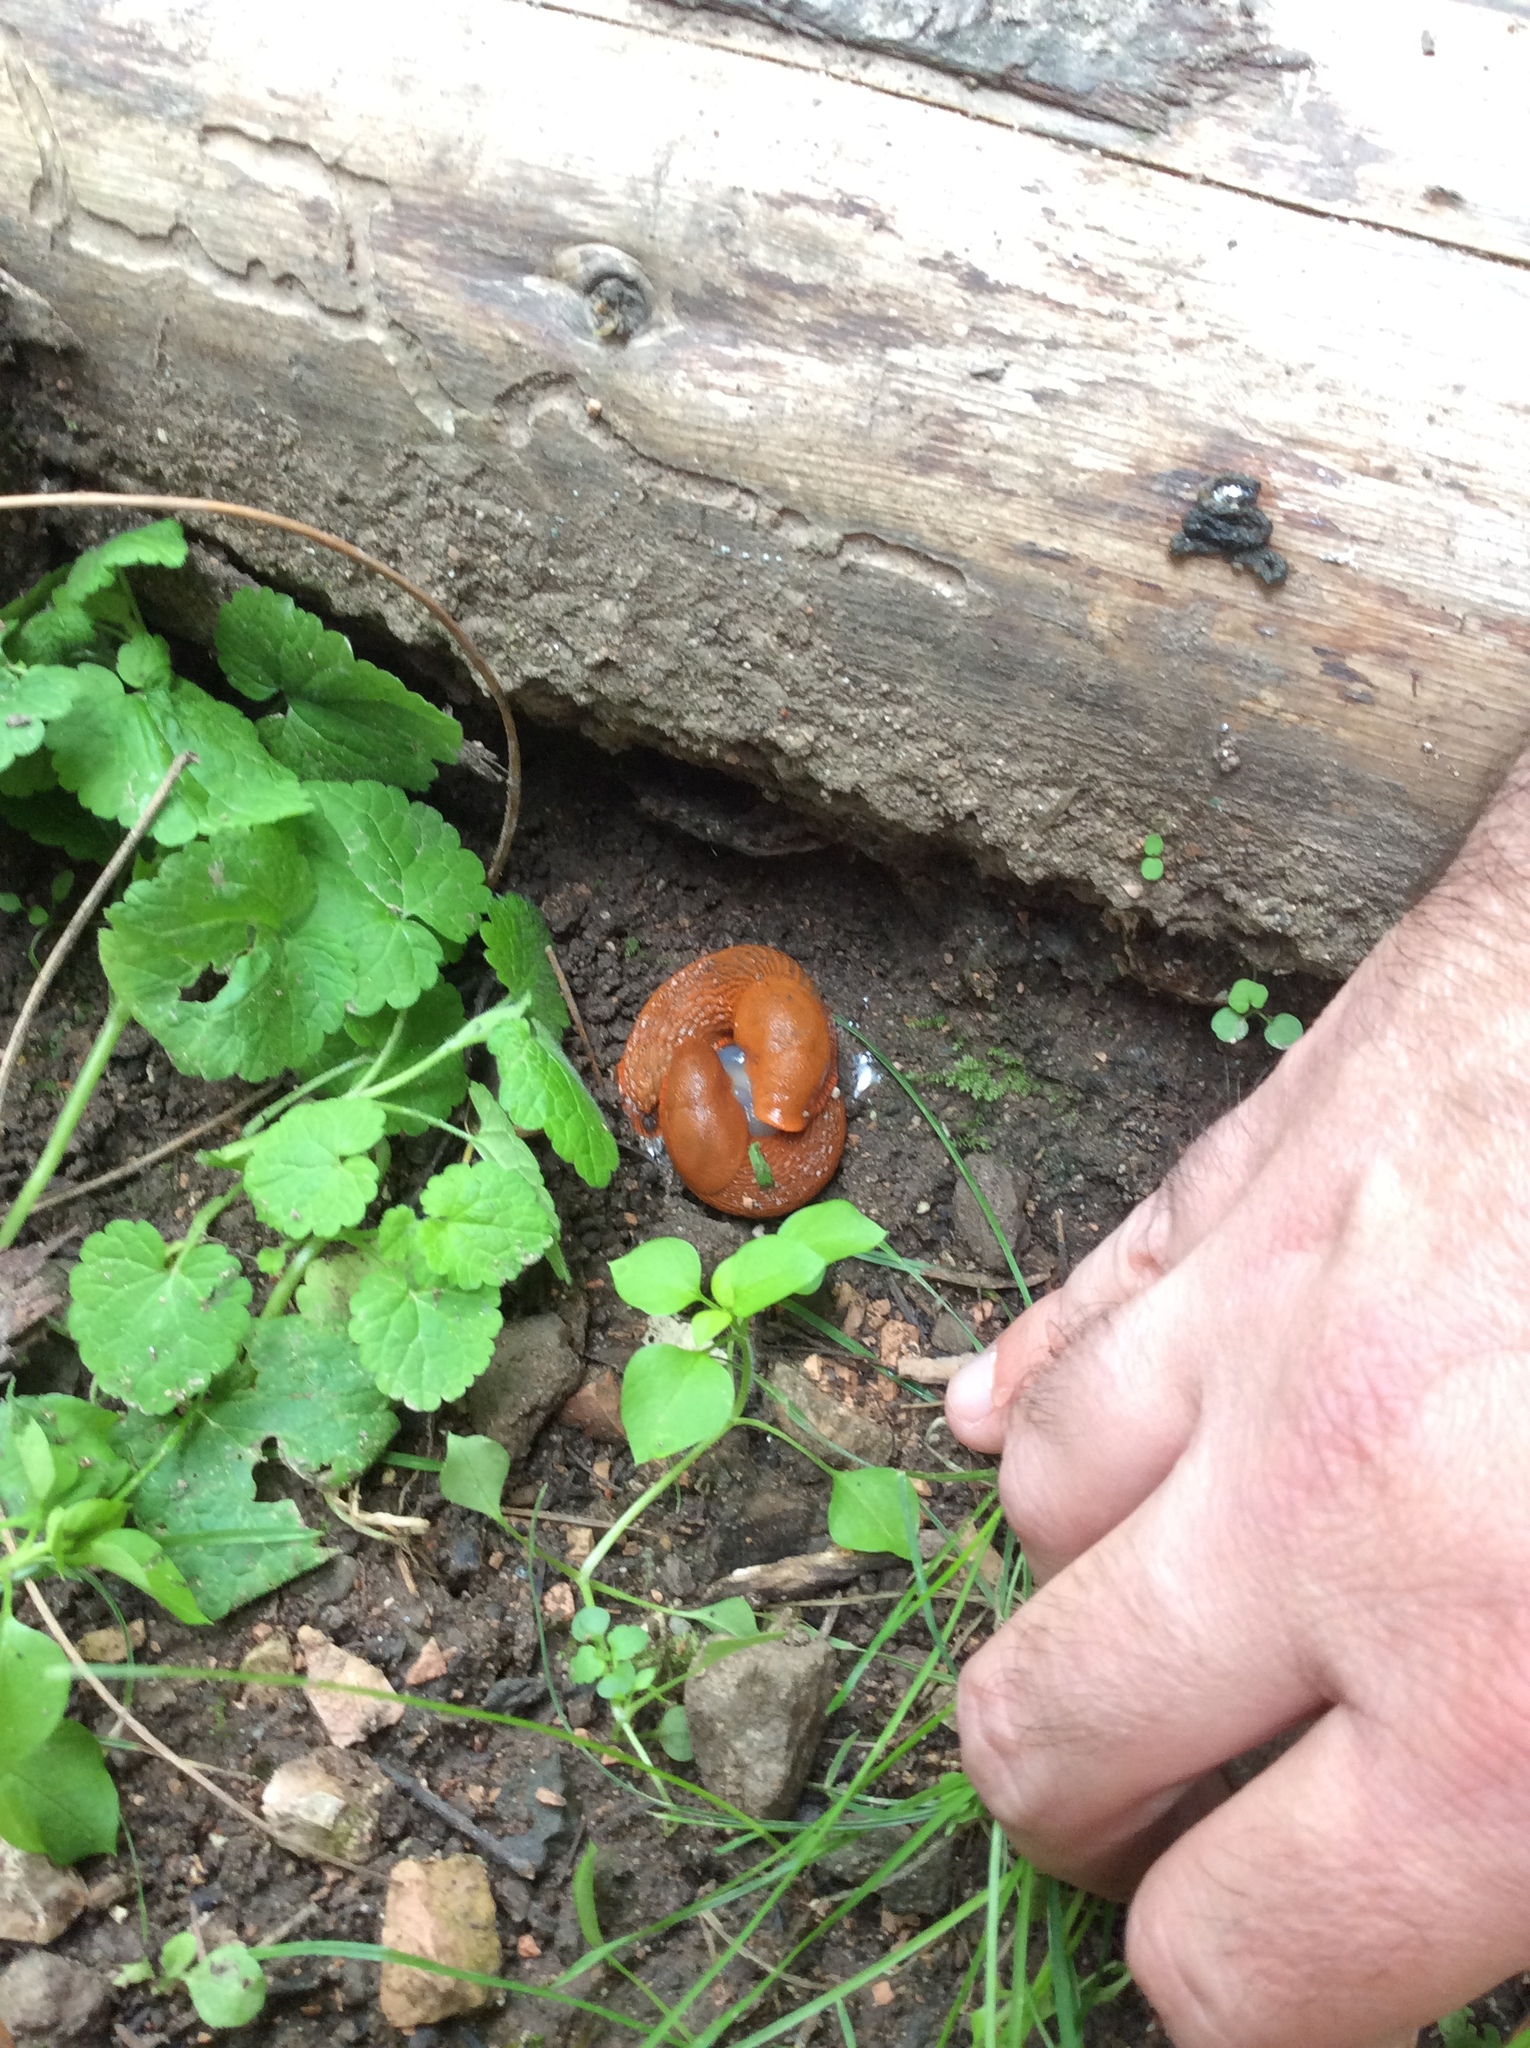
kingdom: Animalia
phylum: Mollusca
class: Gastropoda
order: Stylommatophora
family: Arionidae
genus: Arion
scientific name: Arion vulgaris
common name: Lusitanian slug
